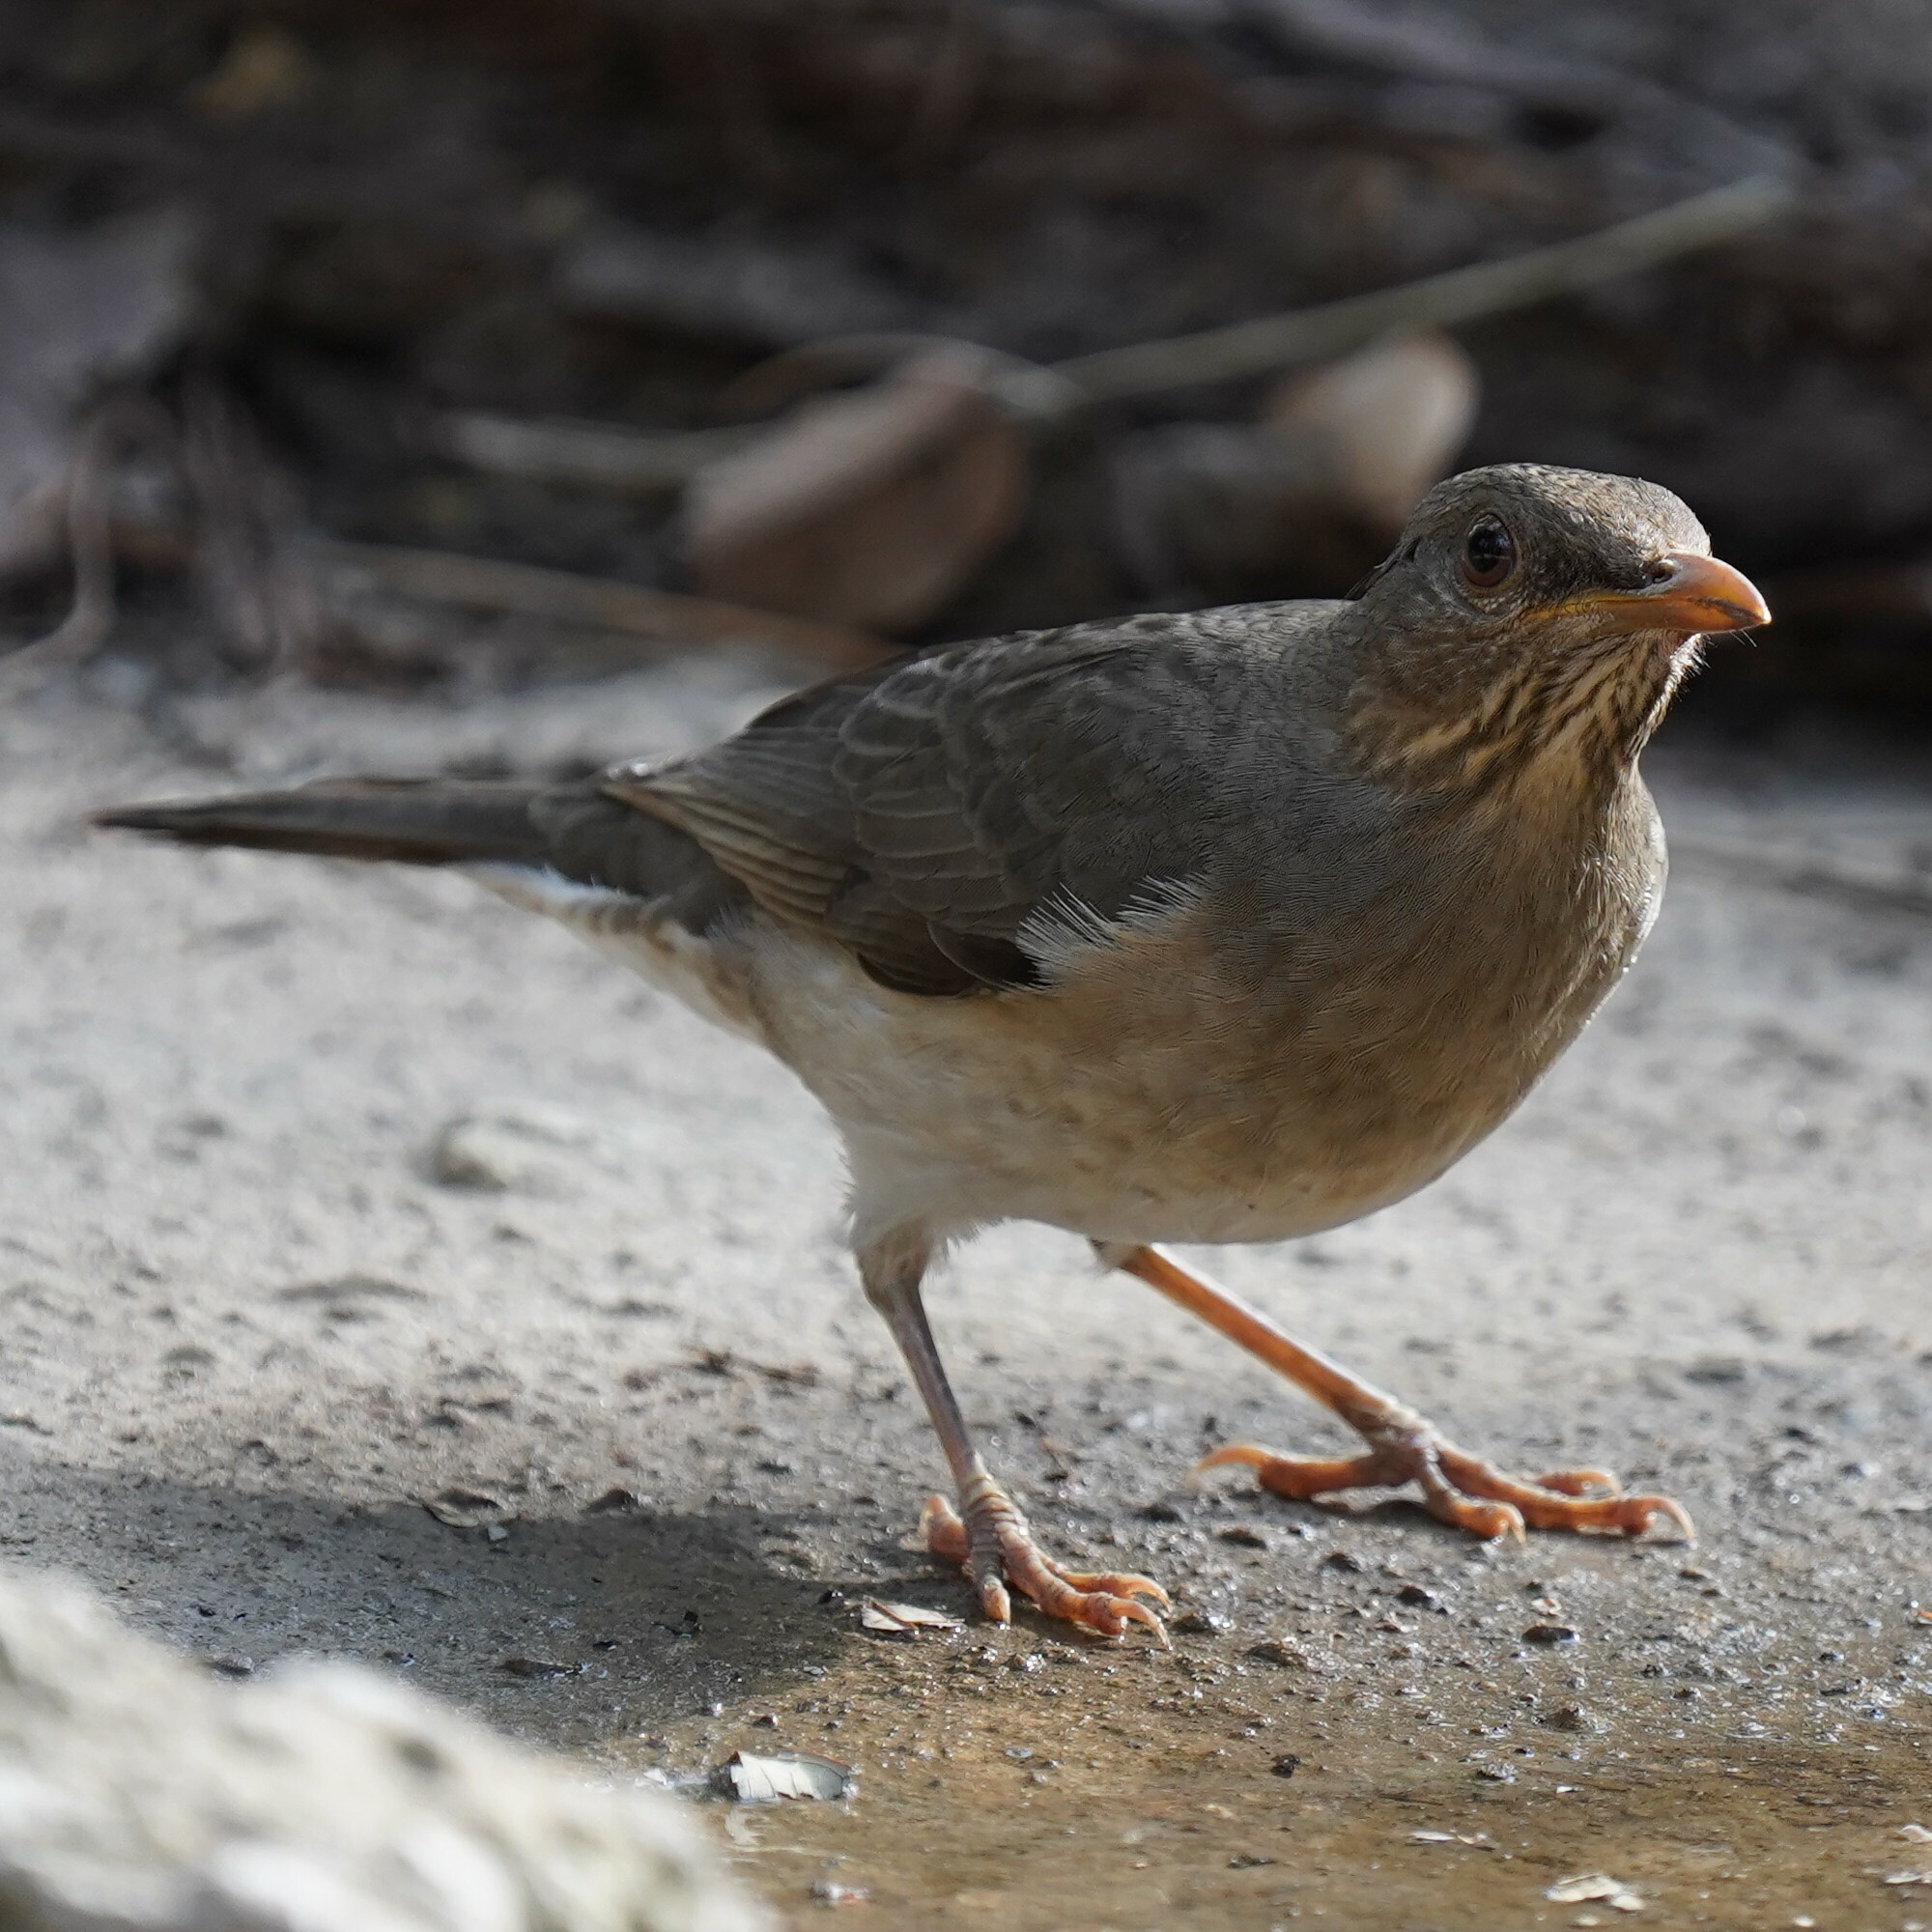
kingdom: Animalia
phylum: Chordata
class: Aves
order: Passeriformes
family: Turdidae
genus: Turdus
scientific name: Turdus pelios
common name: African thrush
